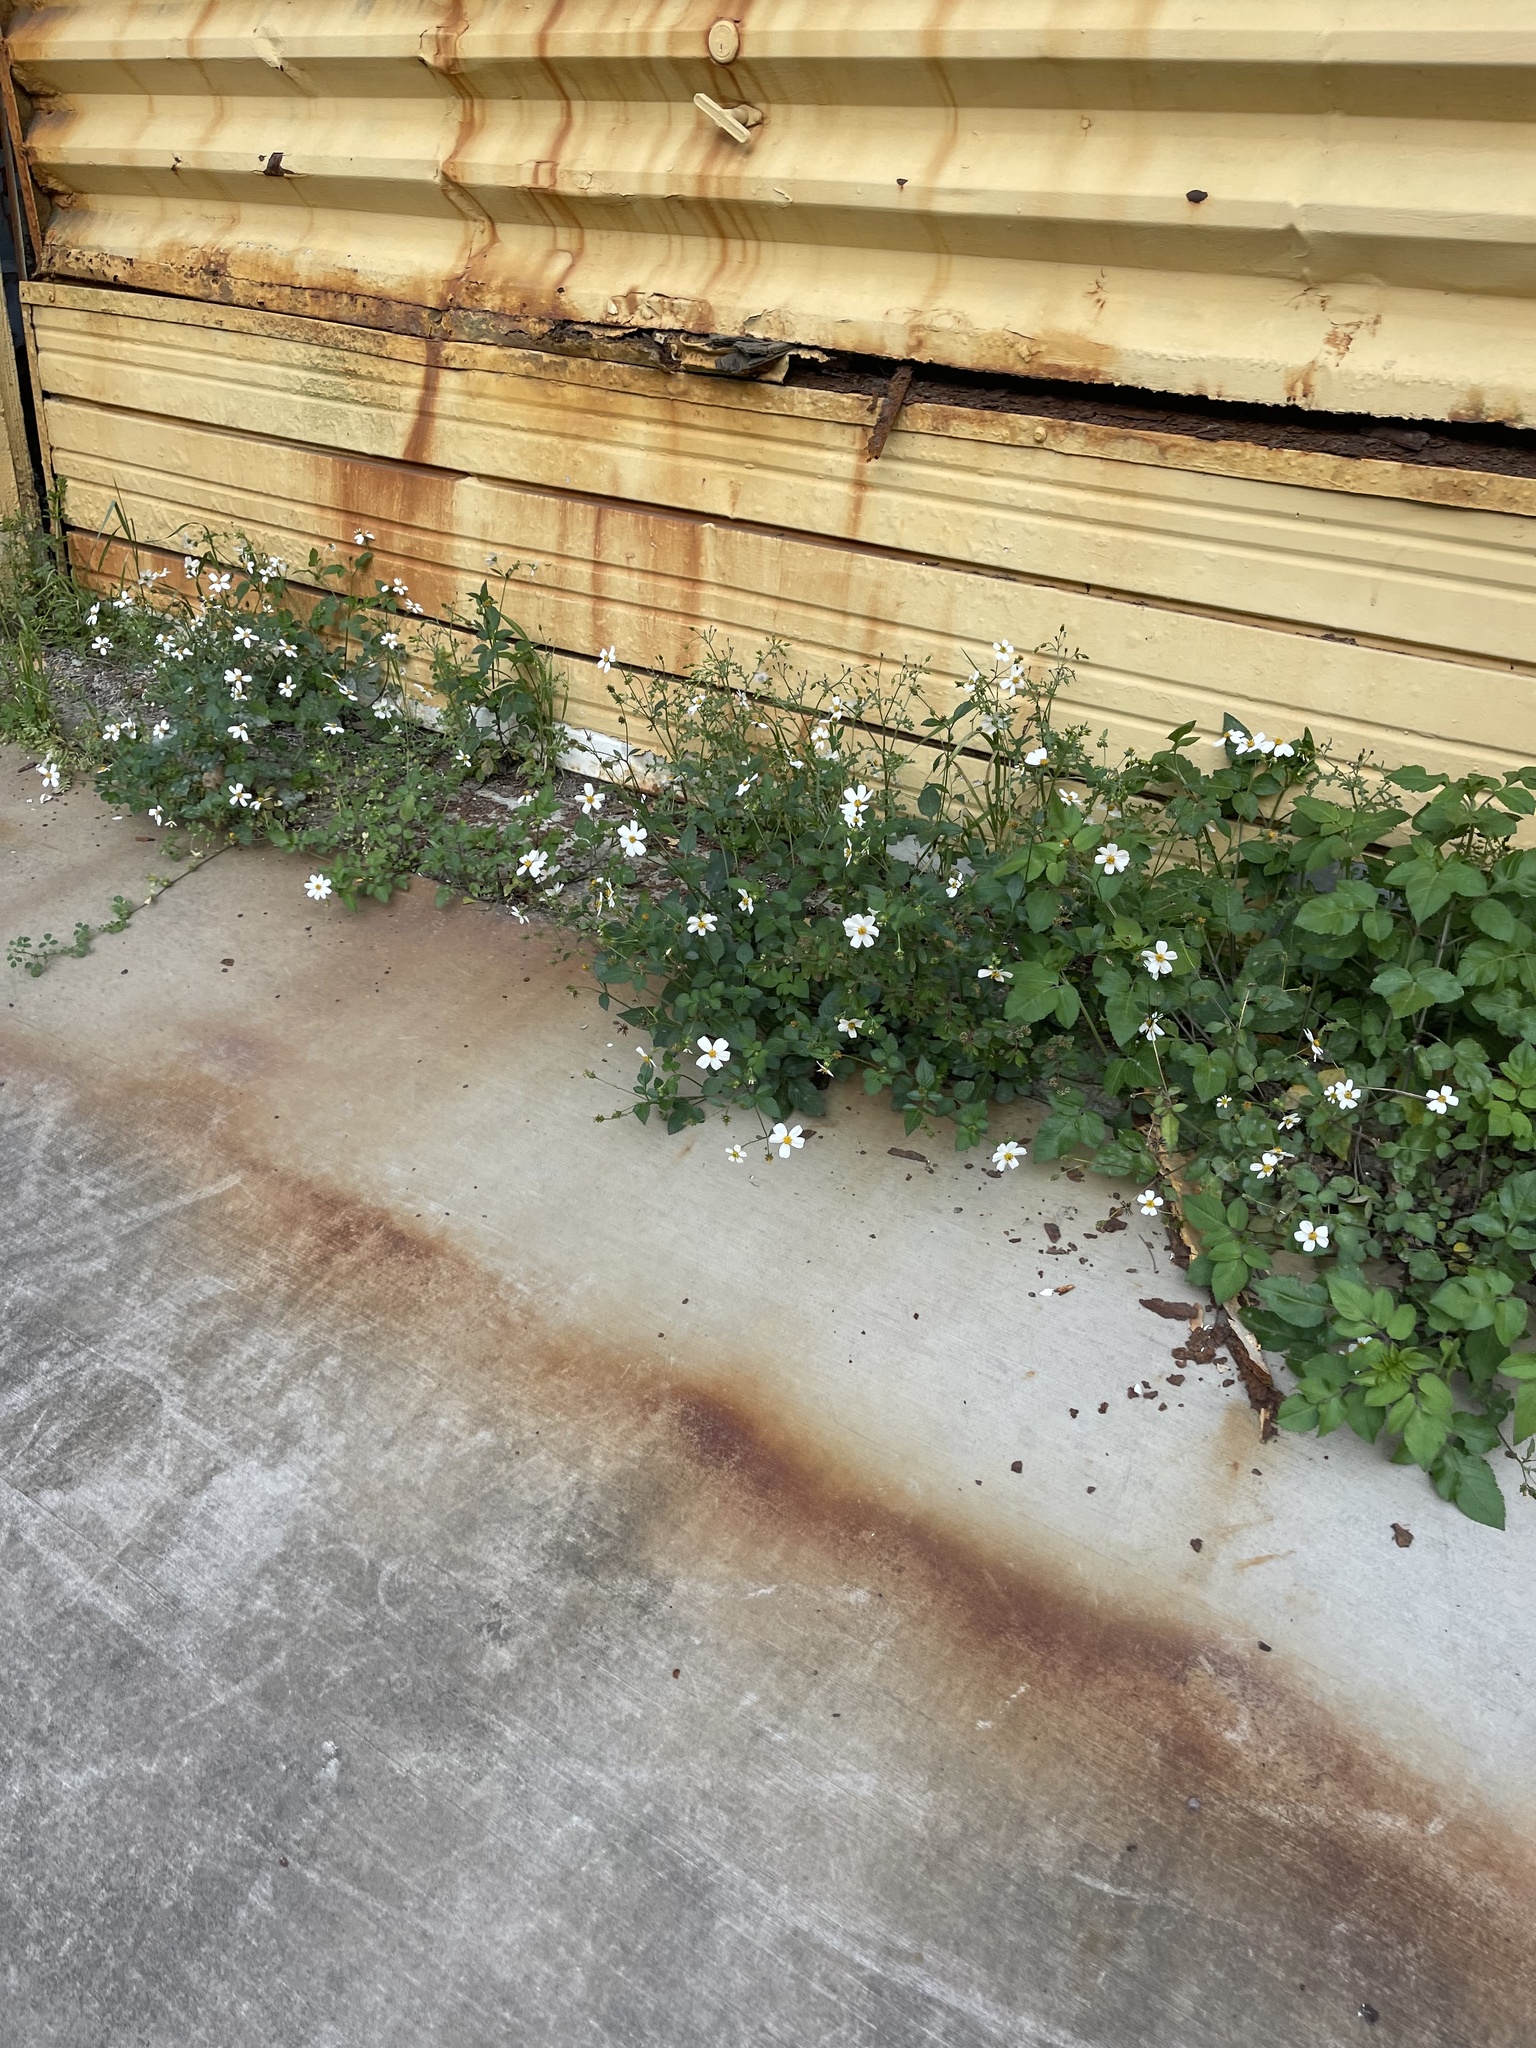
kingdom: Plantae
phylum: Tracheophyta
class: Magnoliopsida
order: Asterales
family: Asteraceae
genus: Bidens
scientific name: Bidens alba
